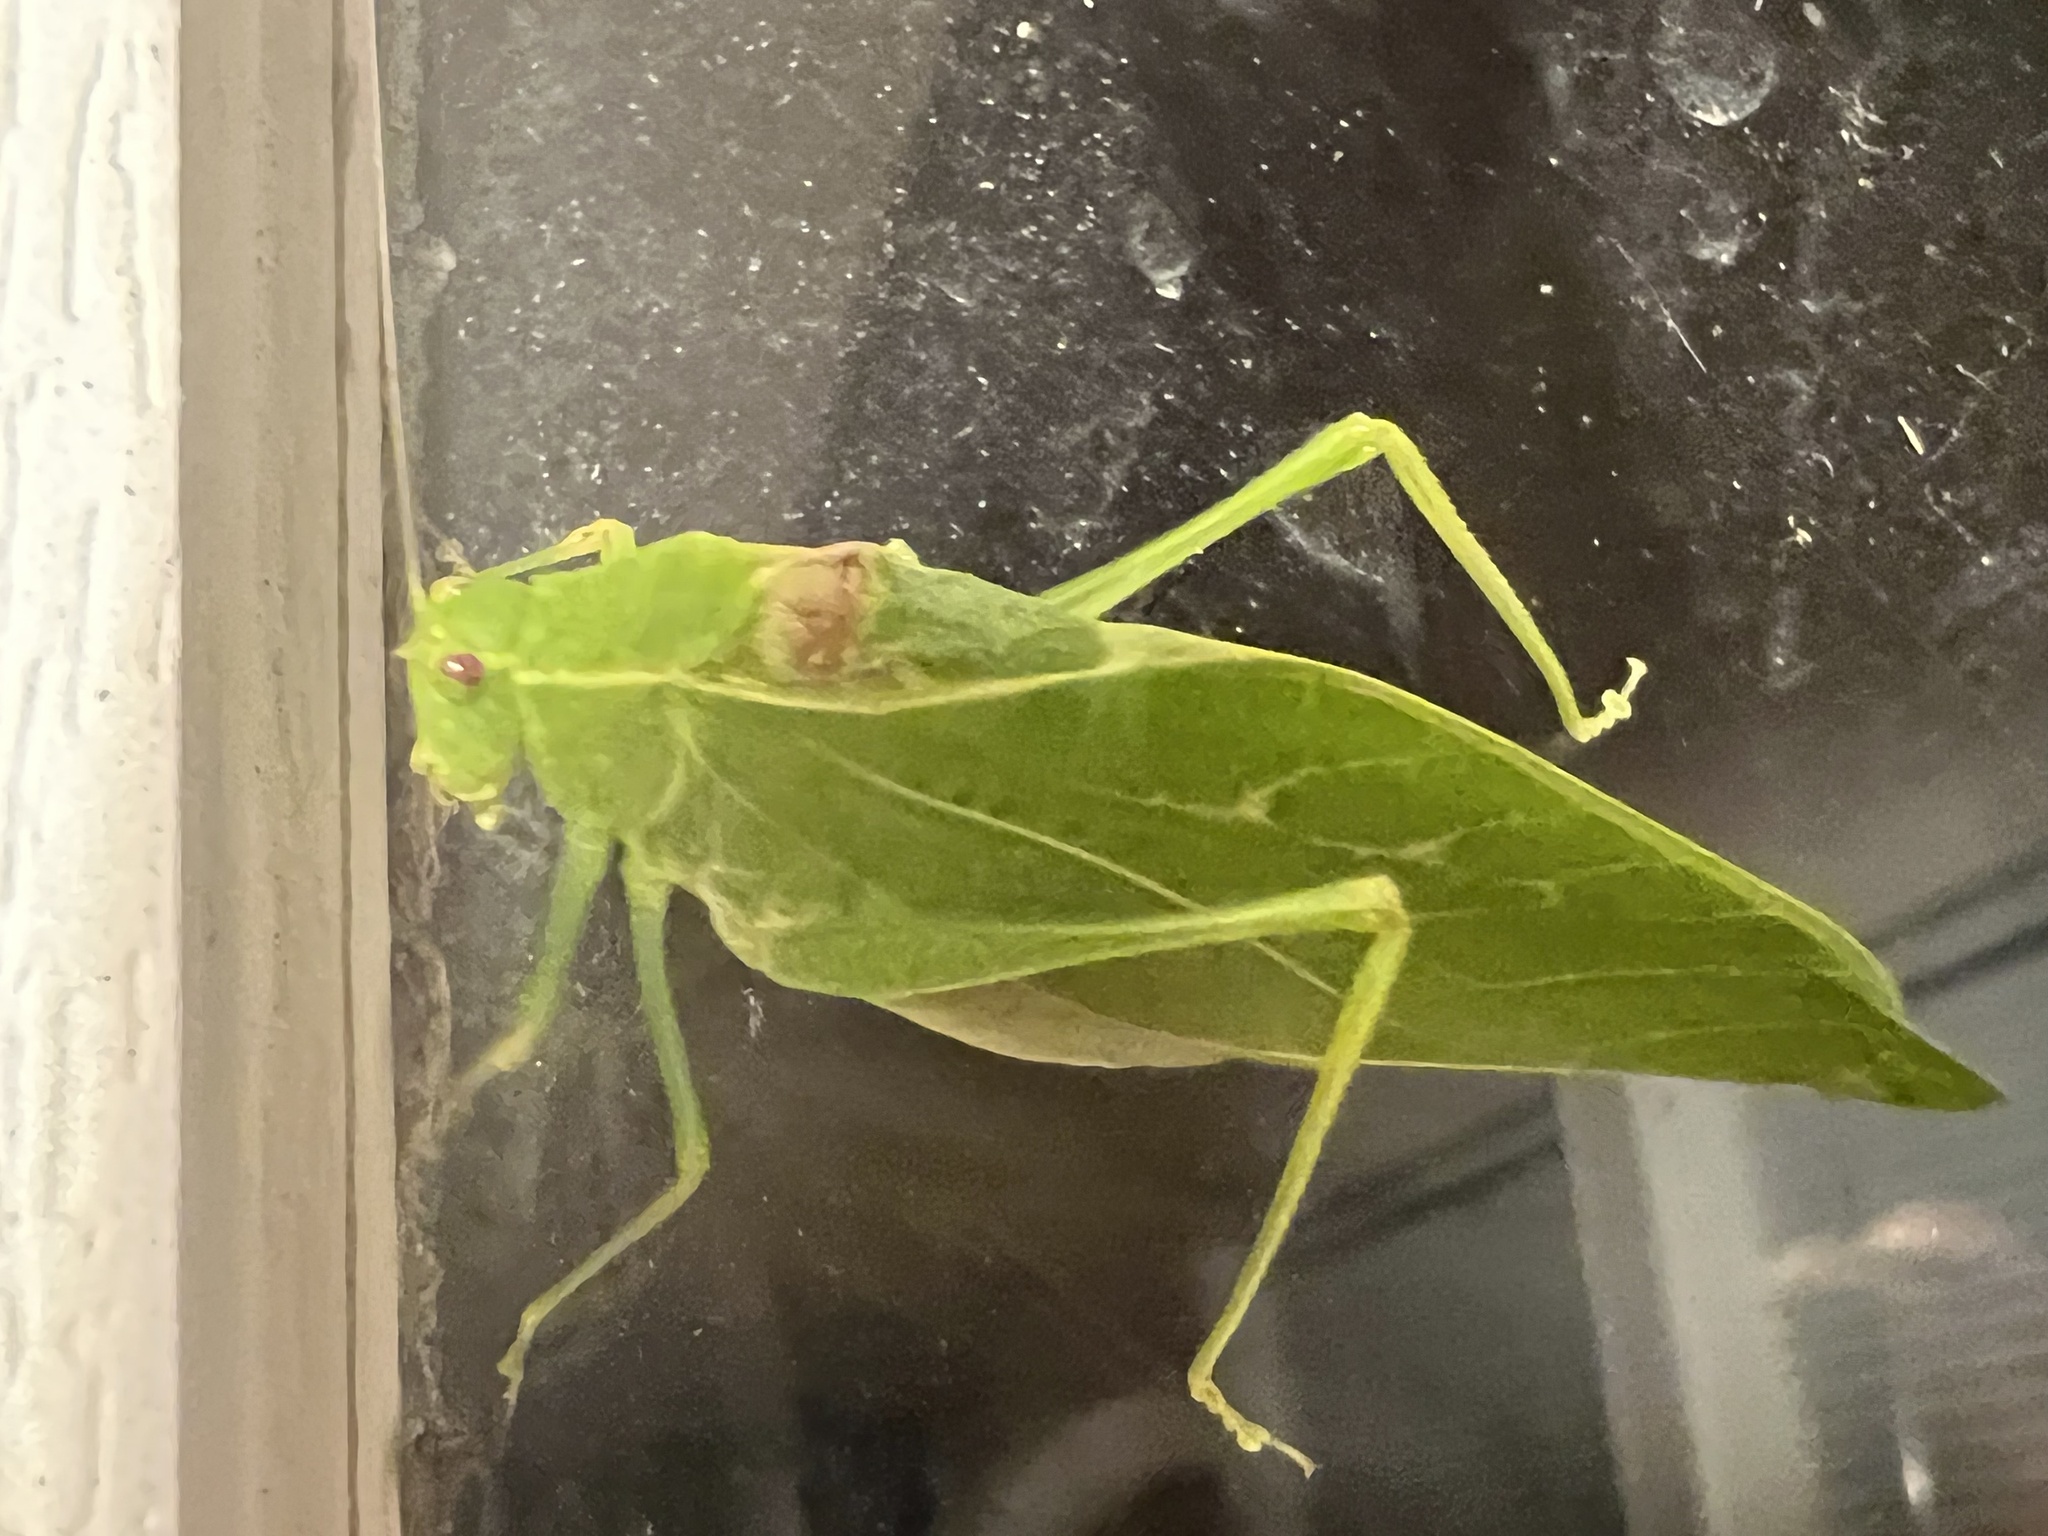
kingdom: Animalia
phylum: Arthropoda
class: Insecta
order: Orthoptera
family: Tettigoniidae
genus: Microcentrum
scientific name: Microcentrum retinerve
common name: Angular-winged katydid
